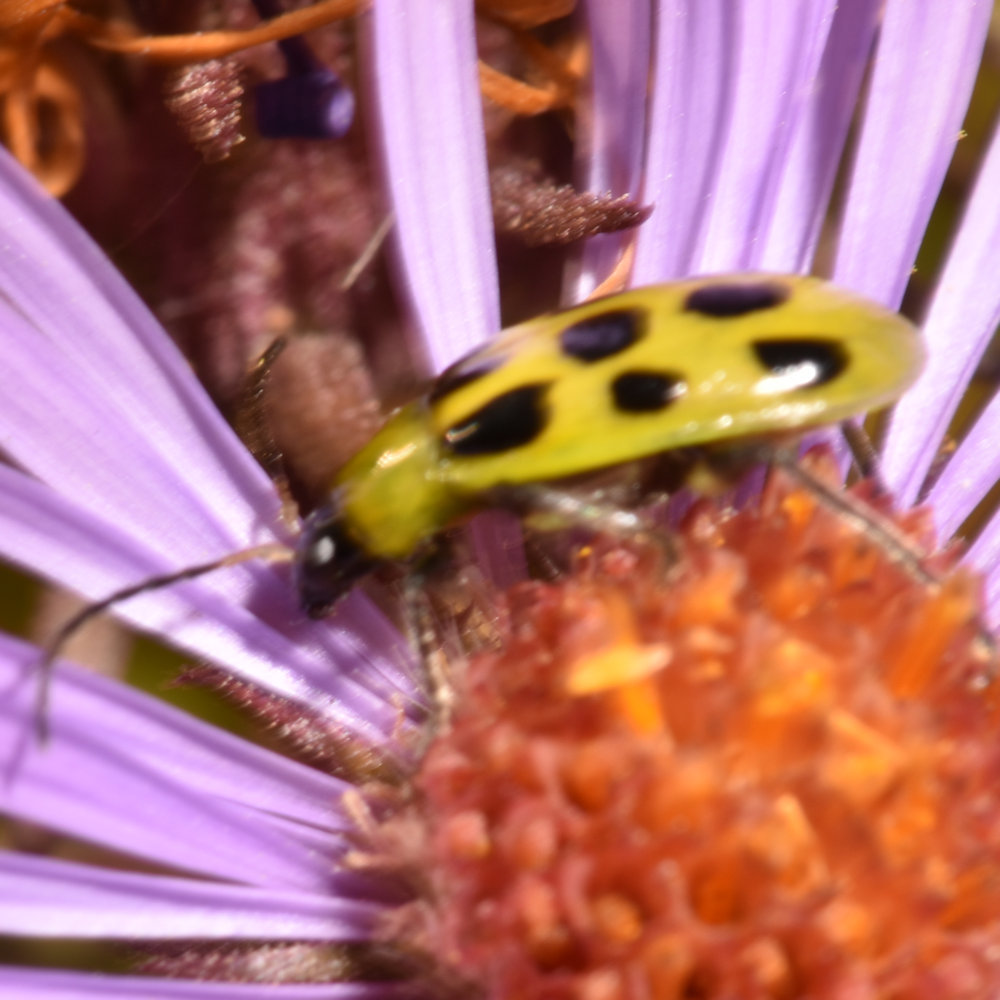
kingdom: Animalia
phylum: Arthropoda
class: Insecta
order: Coleoptera
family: Chrysomelidae
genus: Diabrotica
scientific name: Diabrotica undecimpunctata
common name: Spotted cucumber beetle
